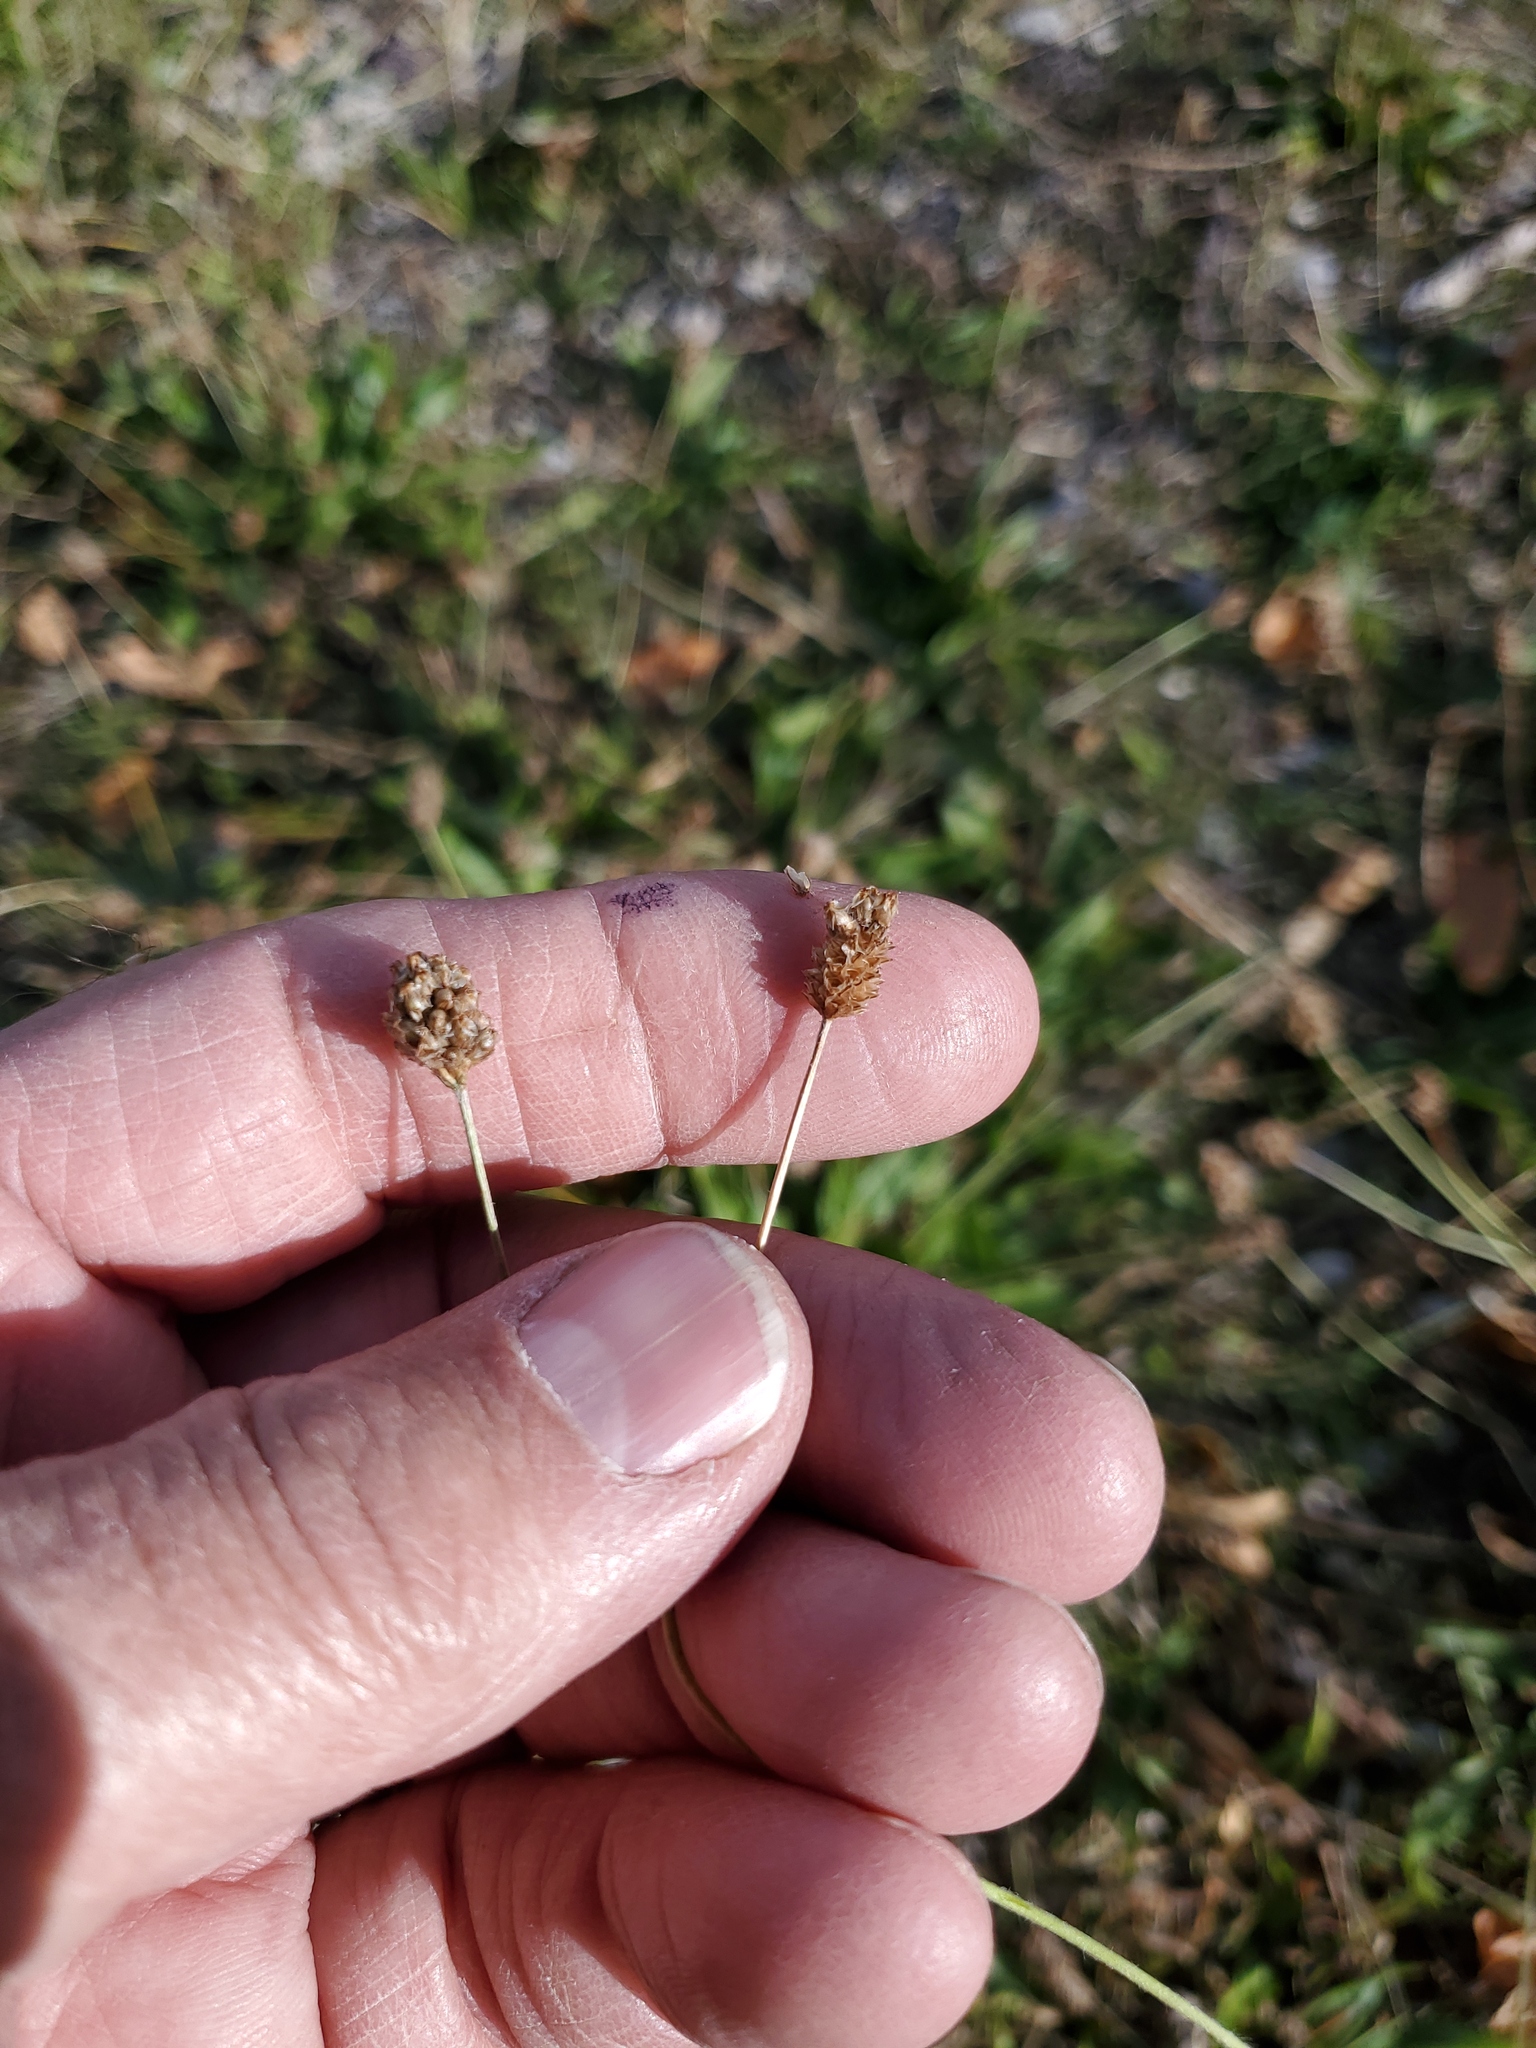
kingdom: Plantae
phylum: Tracheophyta
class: Magnoliopsida
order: Lamiales
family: Plantaginaceae
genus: Plantago
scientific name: Plantago lanceolata
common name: Ribwort plantain
